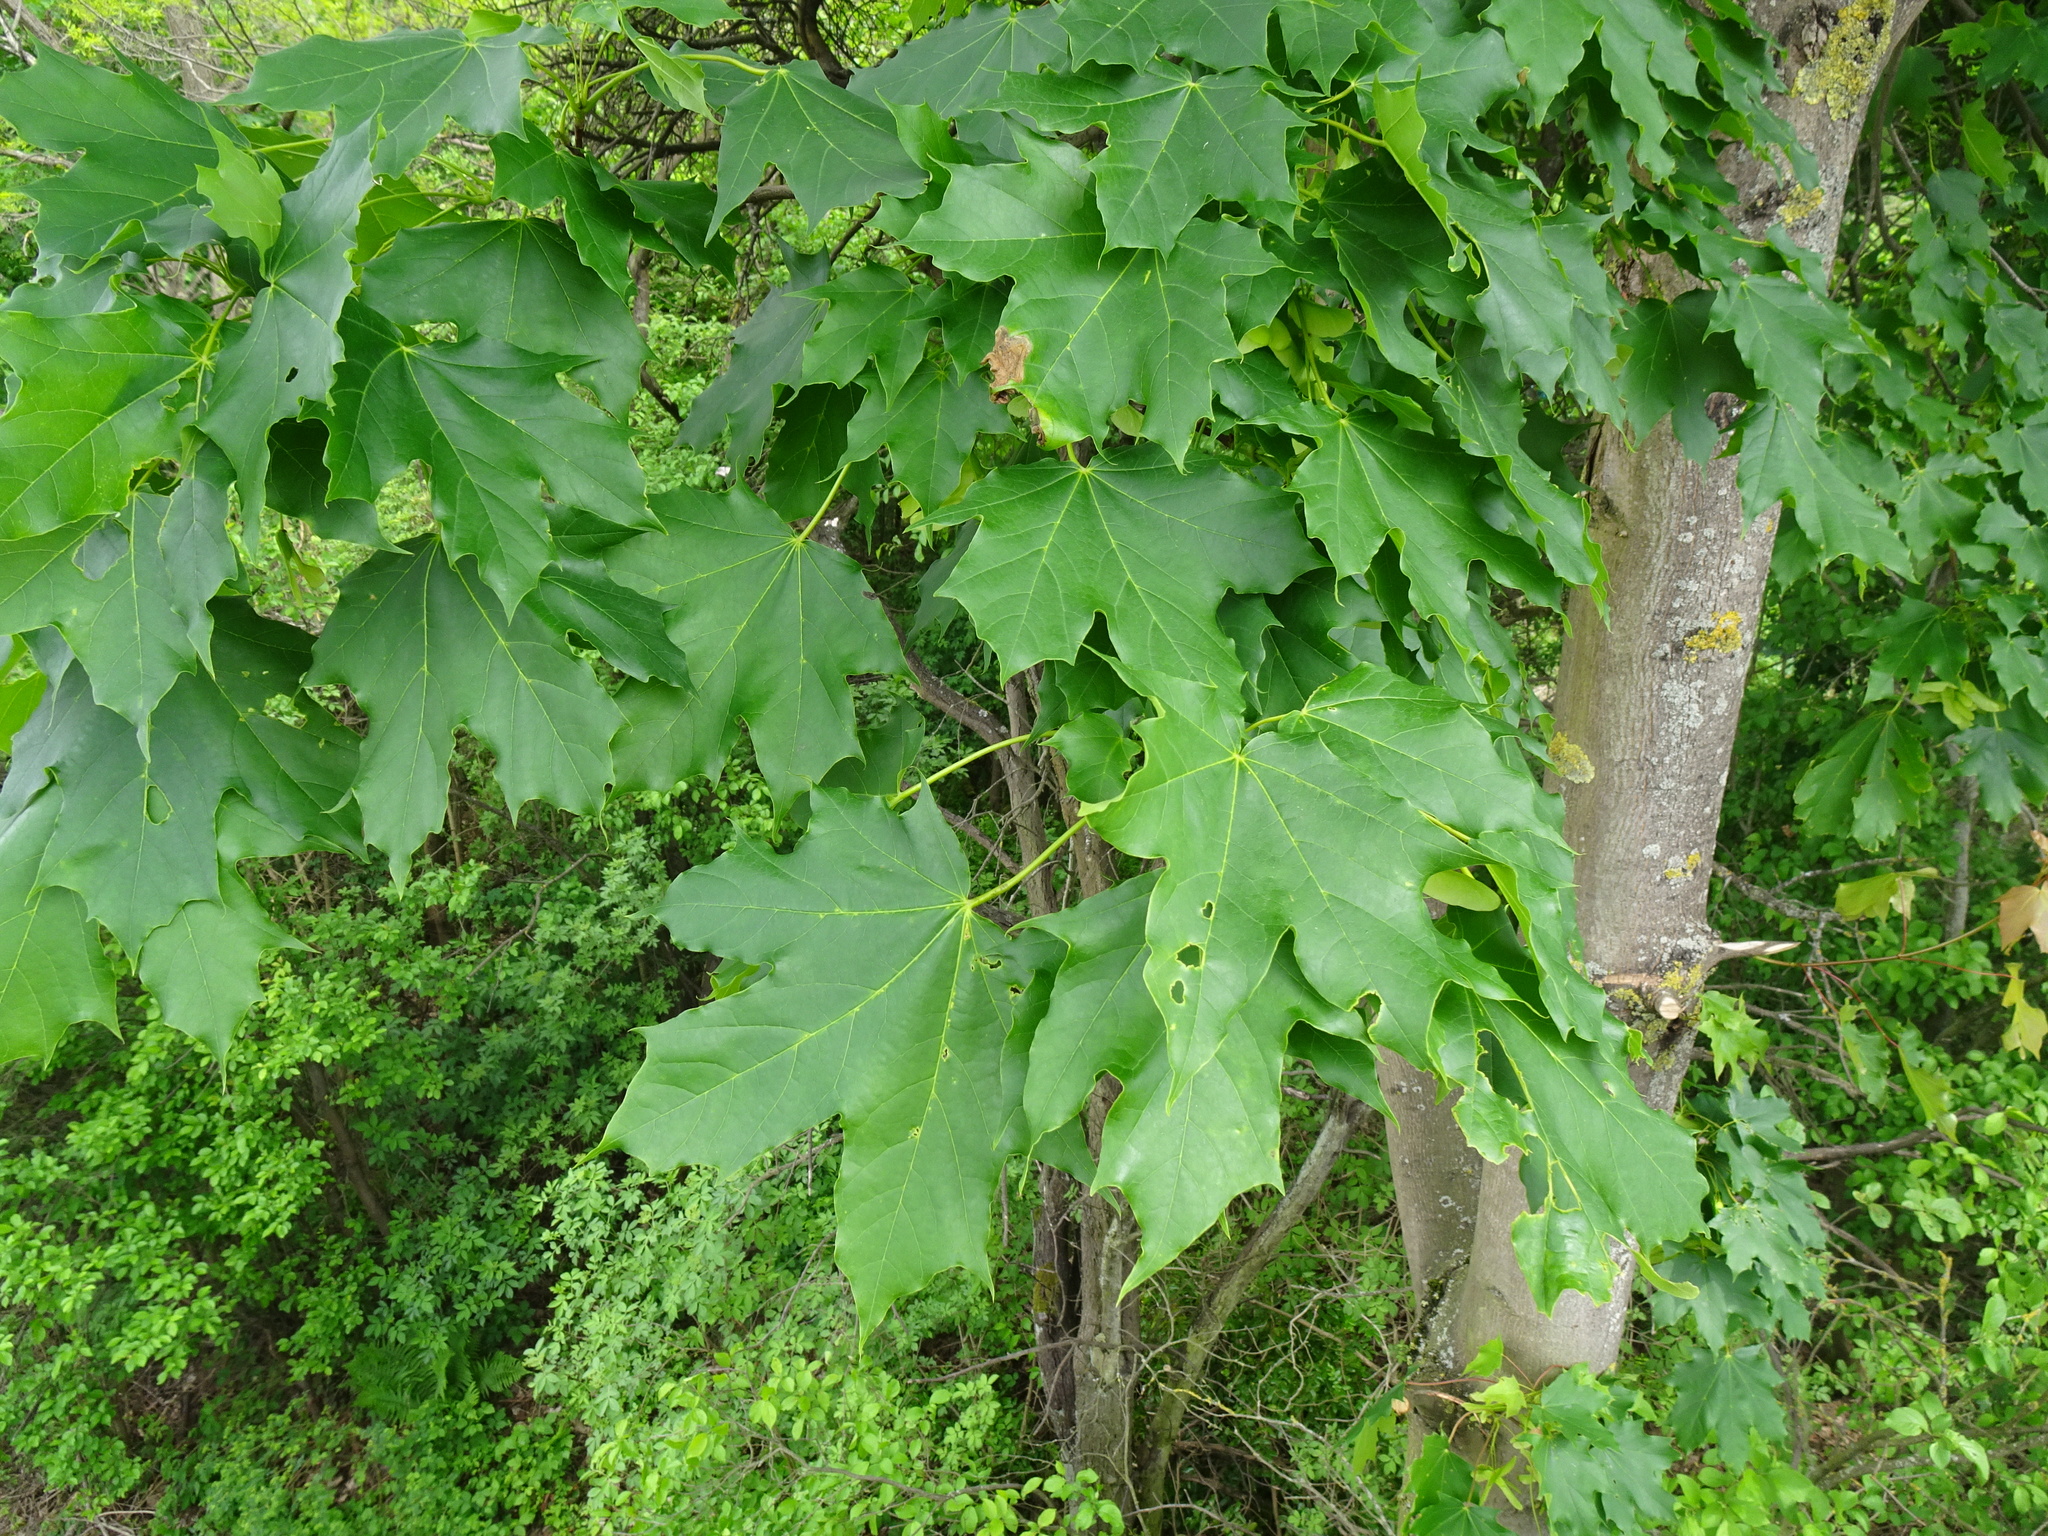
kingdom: Plantae
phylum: Tracheophyta
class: Magnoliopsida
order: Sapindales
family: Sapindaceae
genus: Acer
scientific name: Acer platanoides
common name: Norway maple
